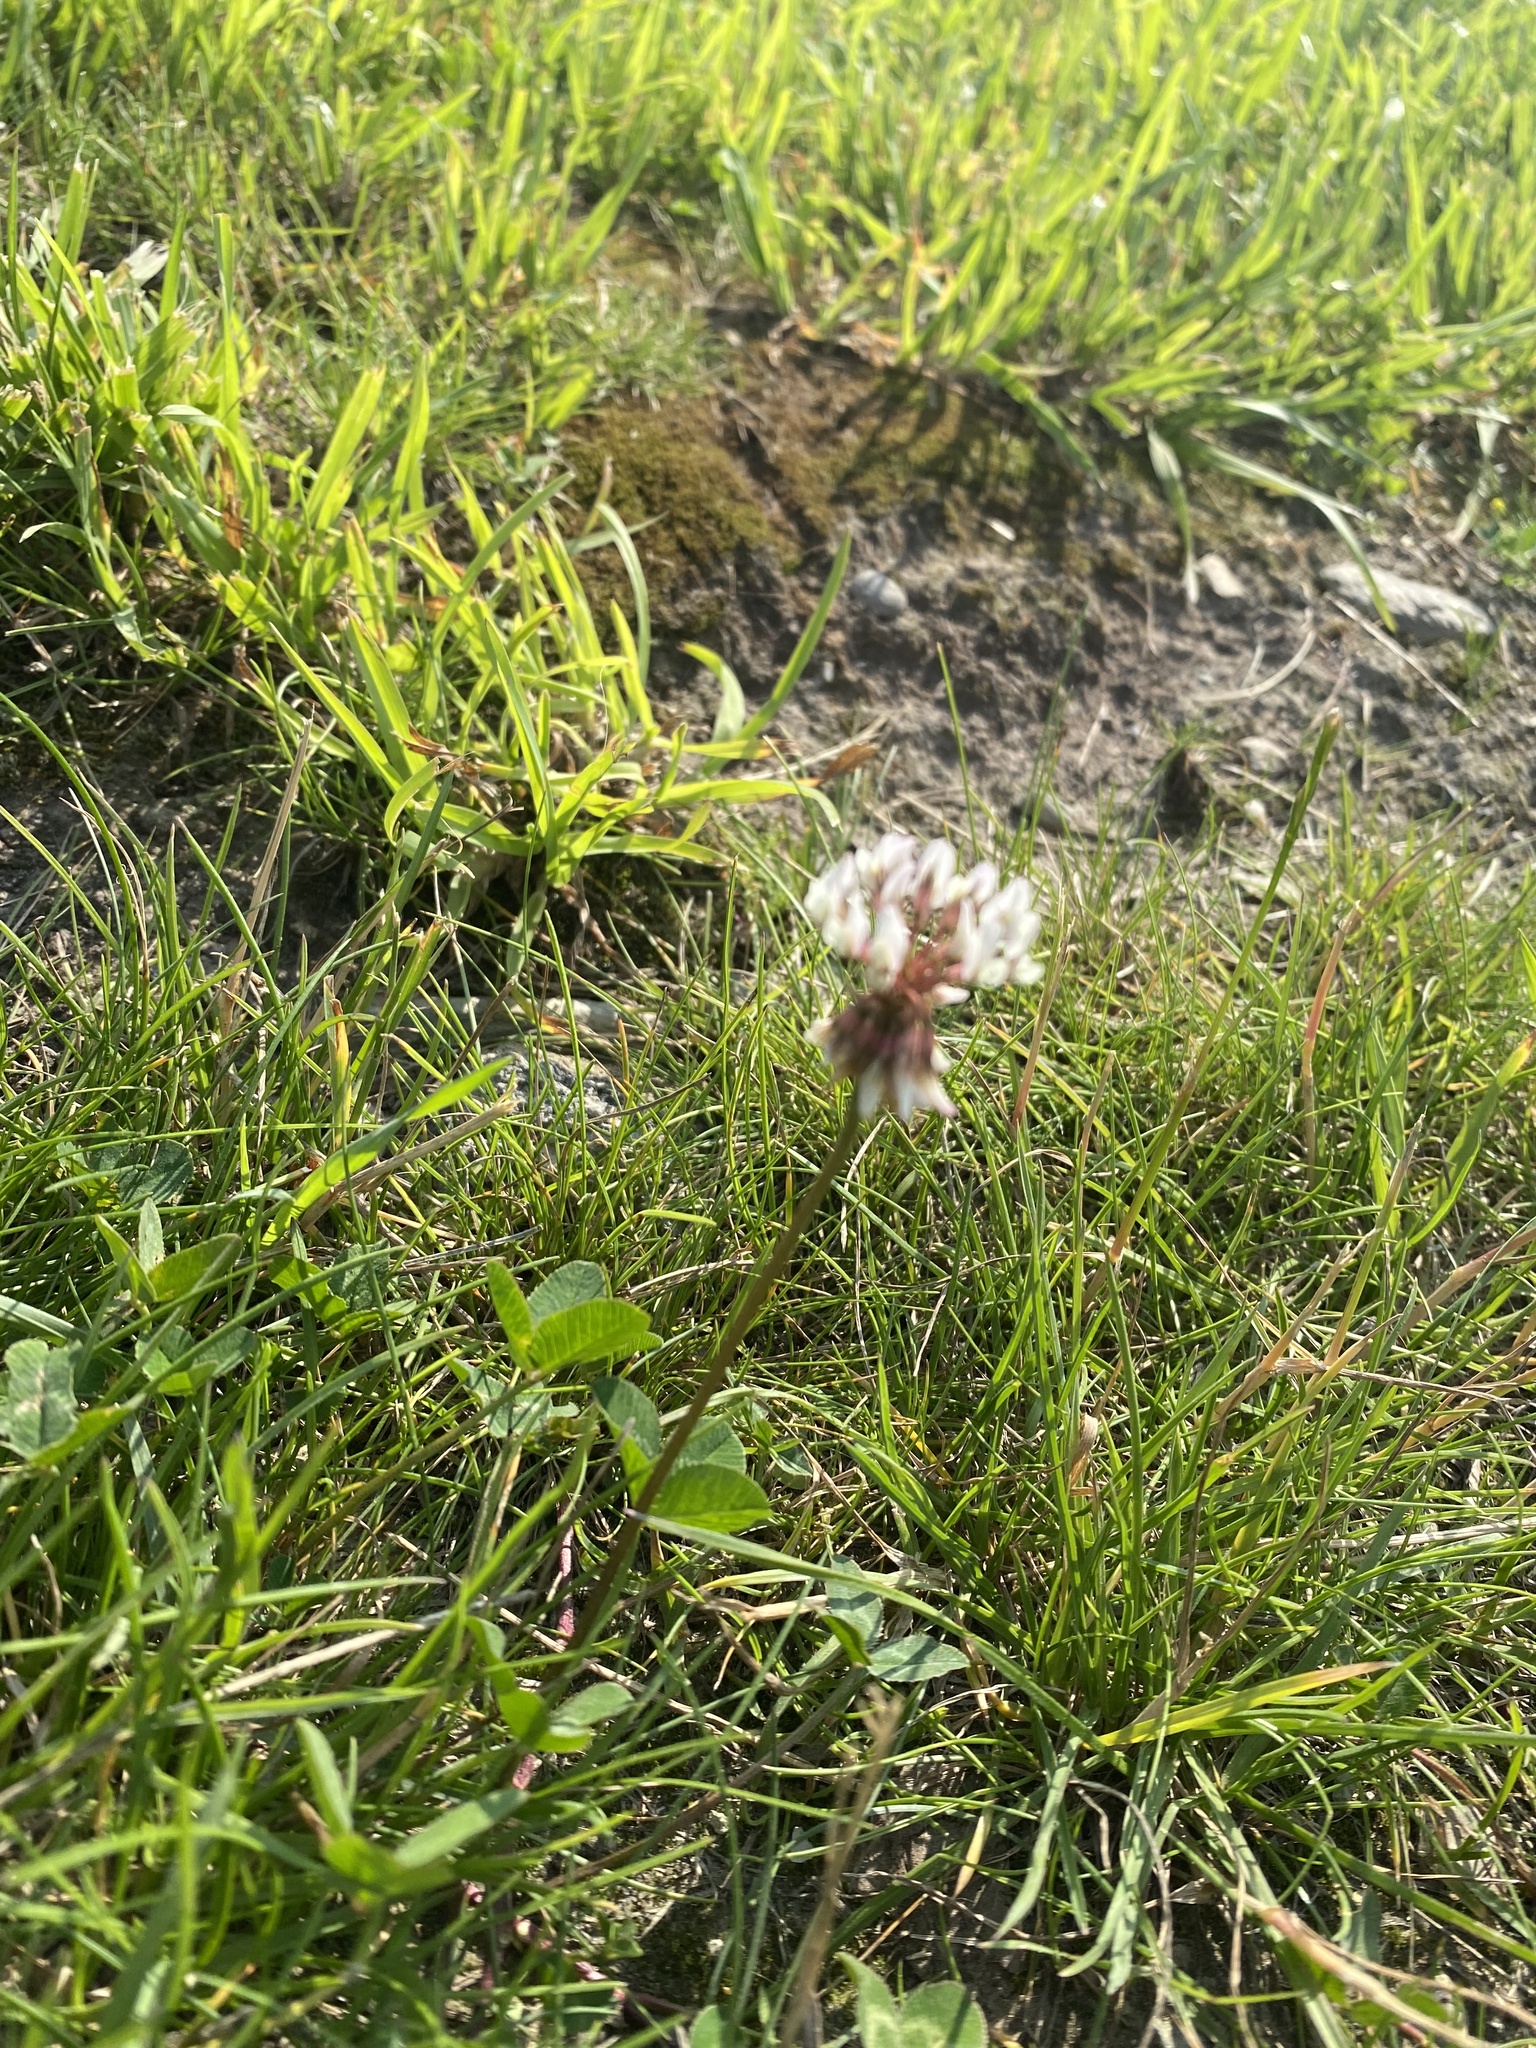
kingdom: Plantae
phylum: Tracheophyta
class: Magnoliopsida
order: Fabales
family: Fabaceae
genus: Trifolium
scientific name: Trifolium repens
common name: White clover
